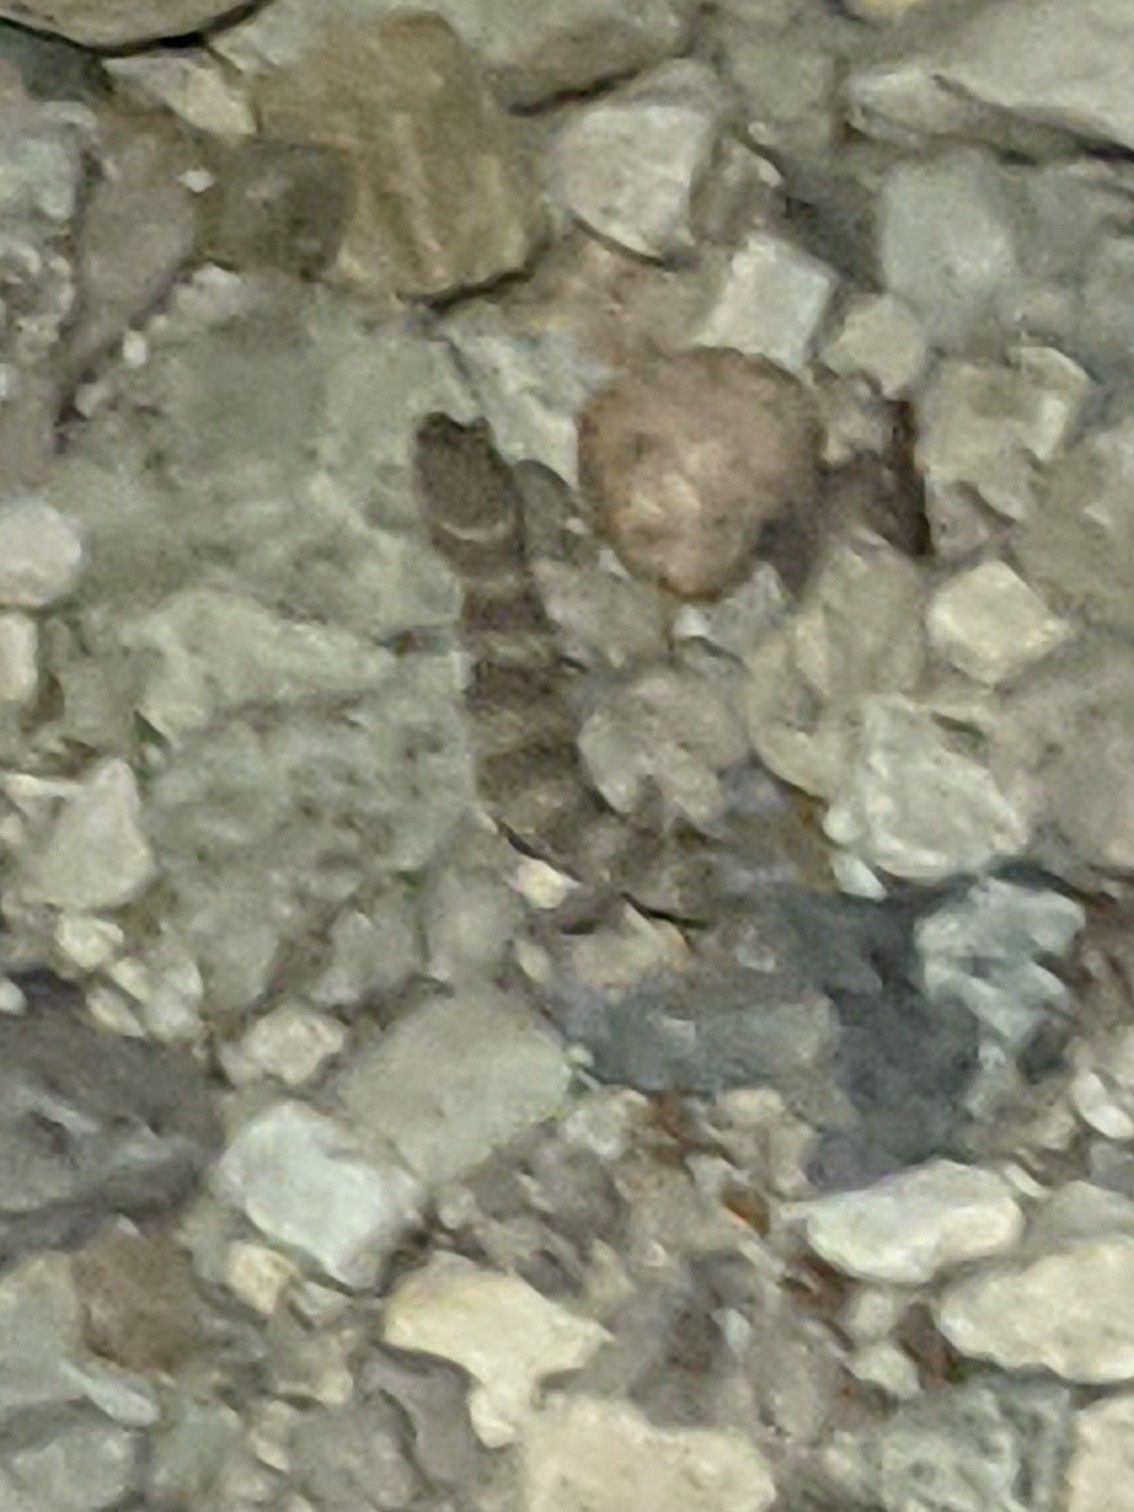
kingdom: Animalia
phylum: Chordata
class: Squamata
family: Eublepharidae
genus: Coleonyx
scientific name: Coleonyx brevis
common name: Texas banded gecko
